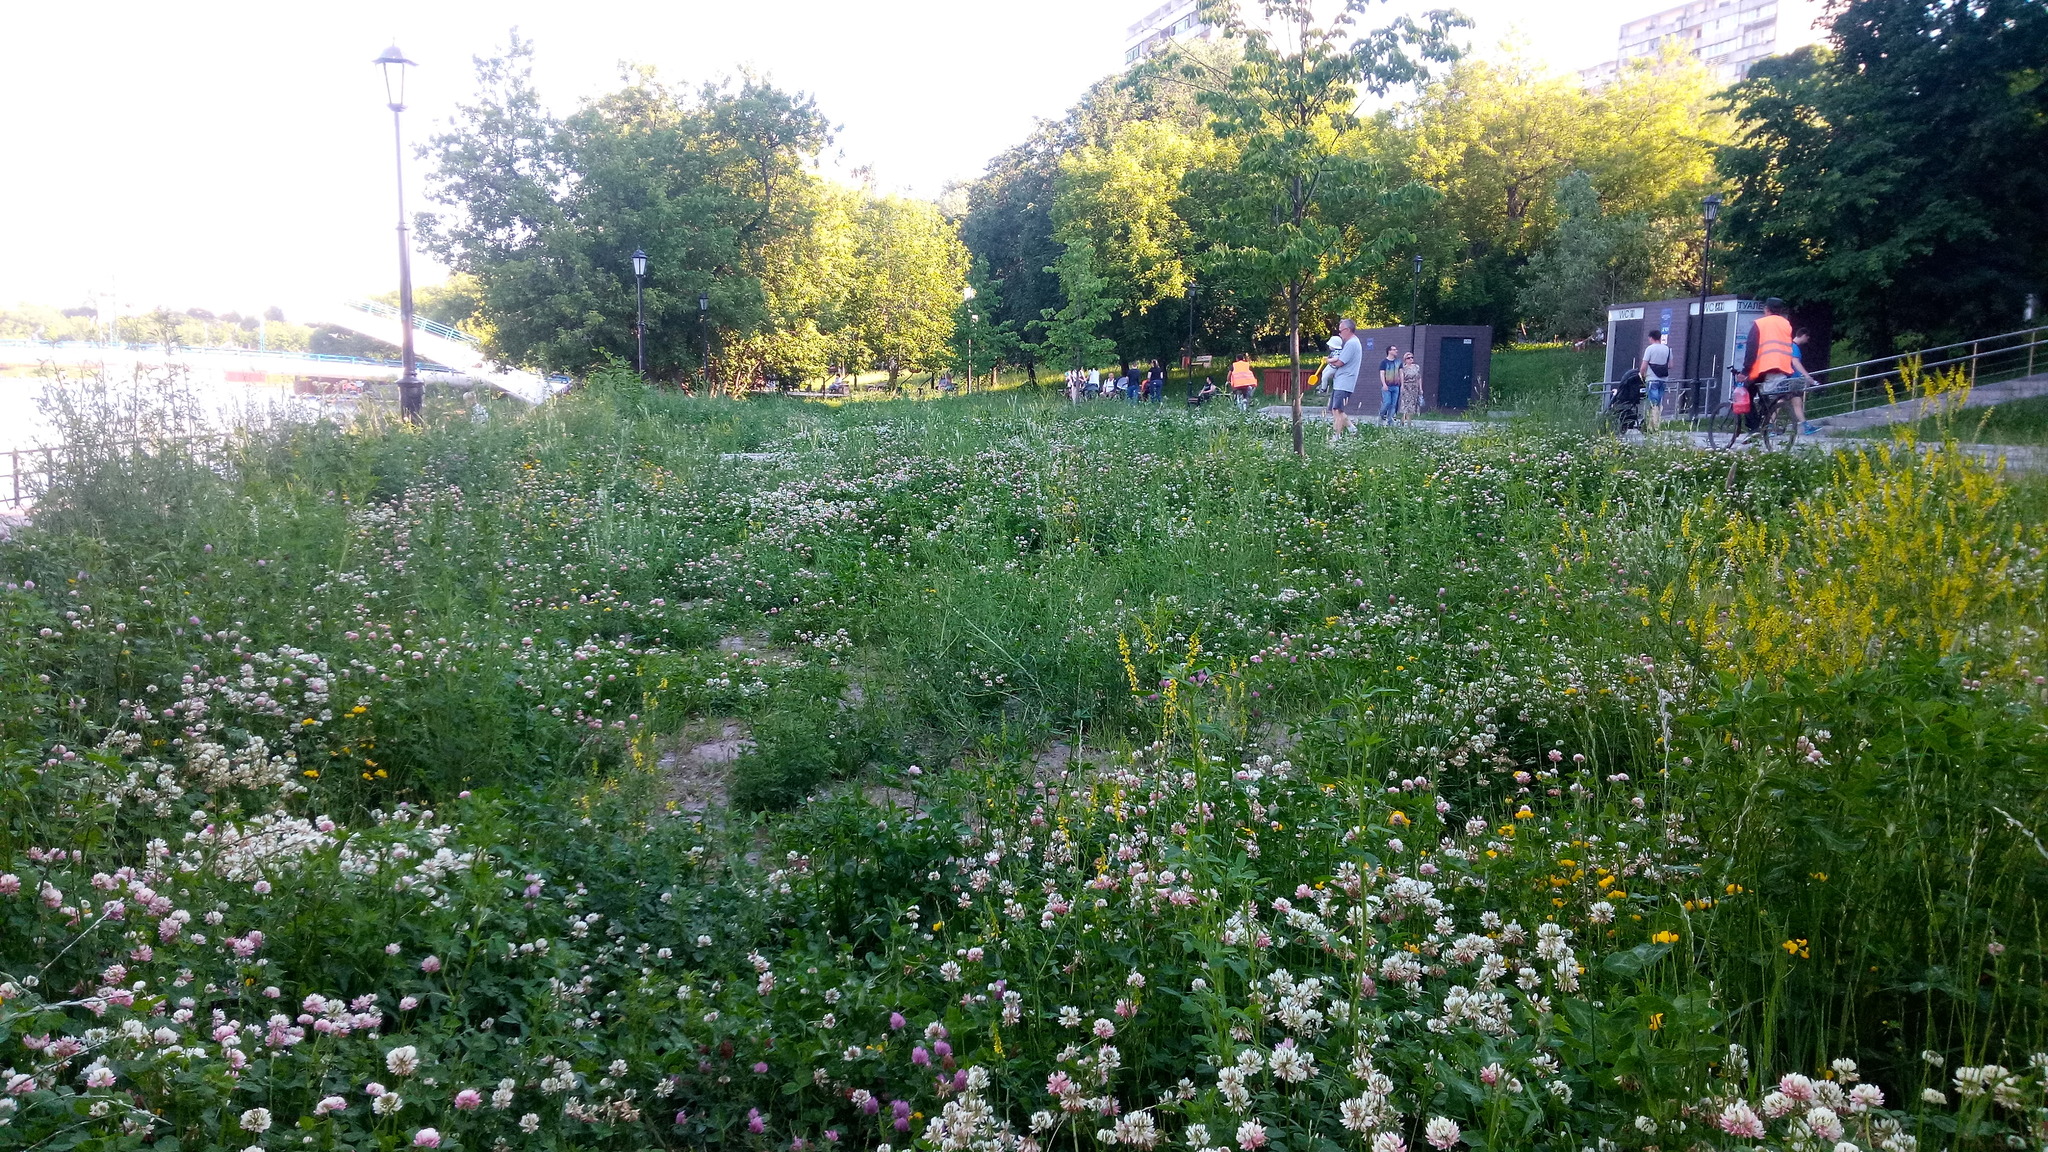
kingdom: Plantae
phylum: Tracheophyta
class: Magnoliopsida
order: Fabales
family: Fabaceae
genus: Trifolium
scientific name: Trifolium hybridum
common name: Alsike clover
